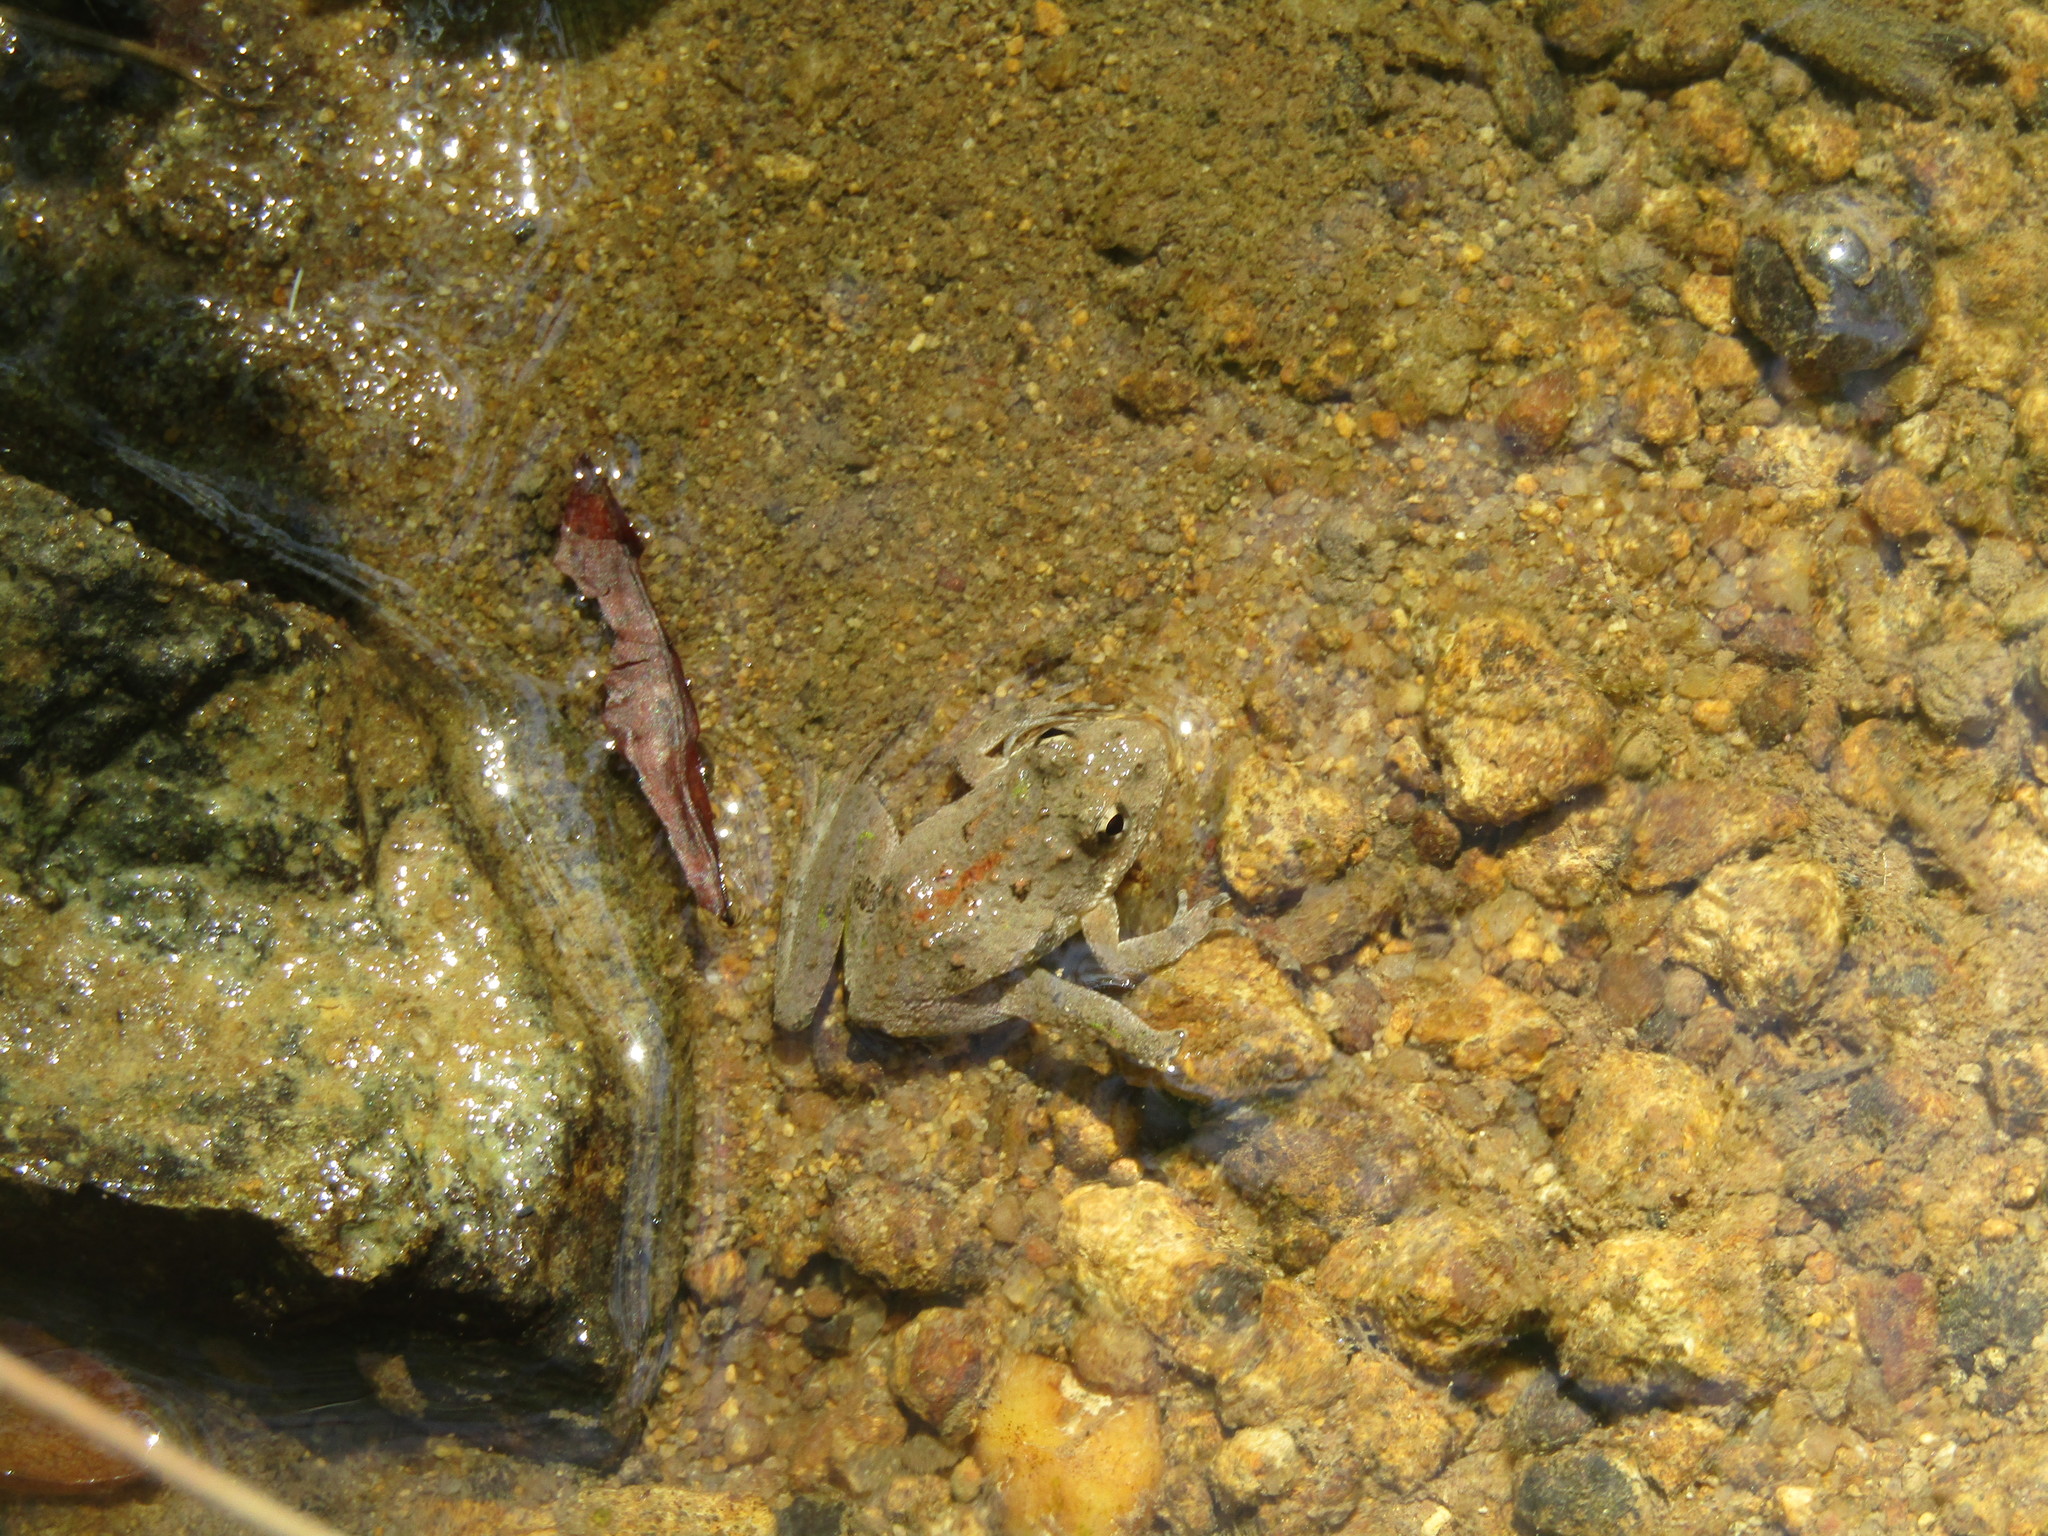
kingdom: Animalia
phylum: Chordata
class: Amphibia
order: Anura
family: Hylidae
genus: Acris
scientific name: Acris crepitans
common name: Northern cricket frog
